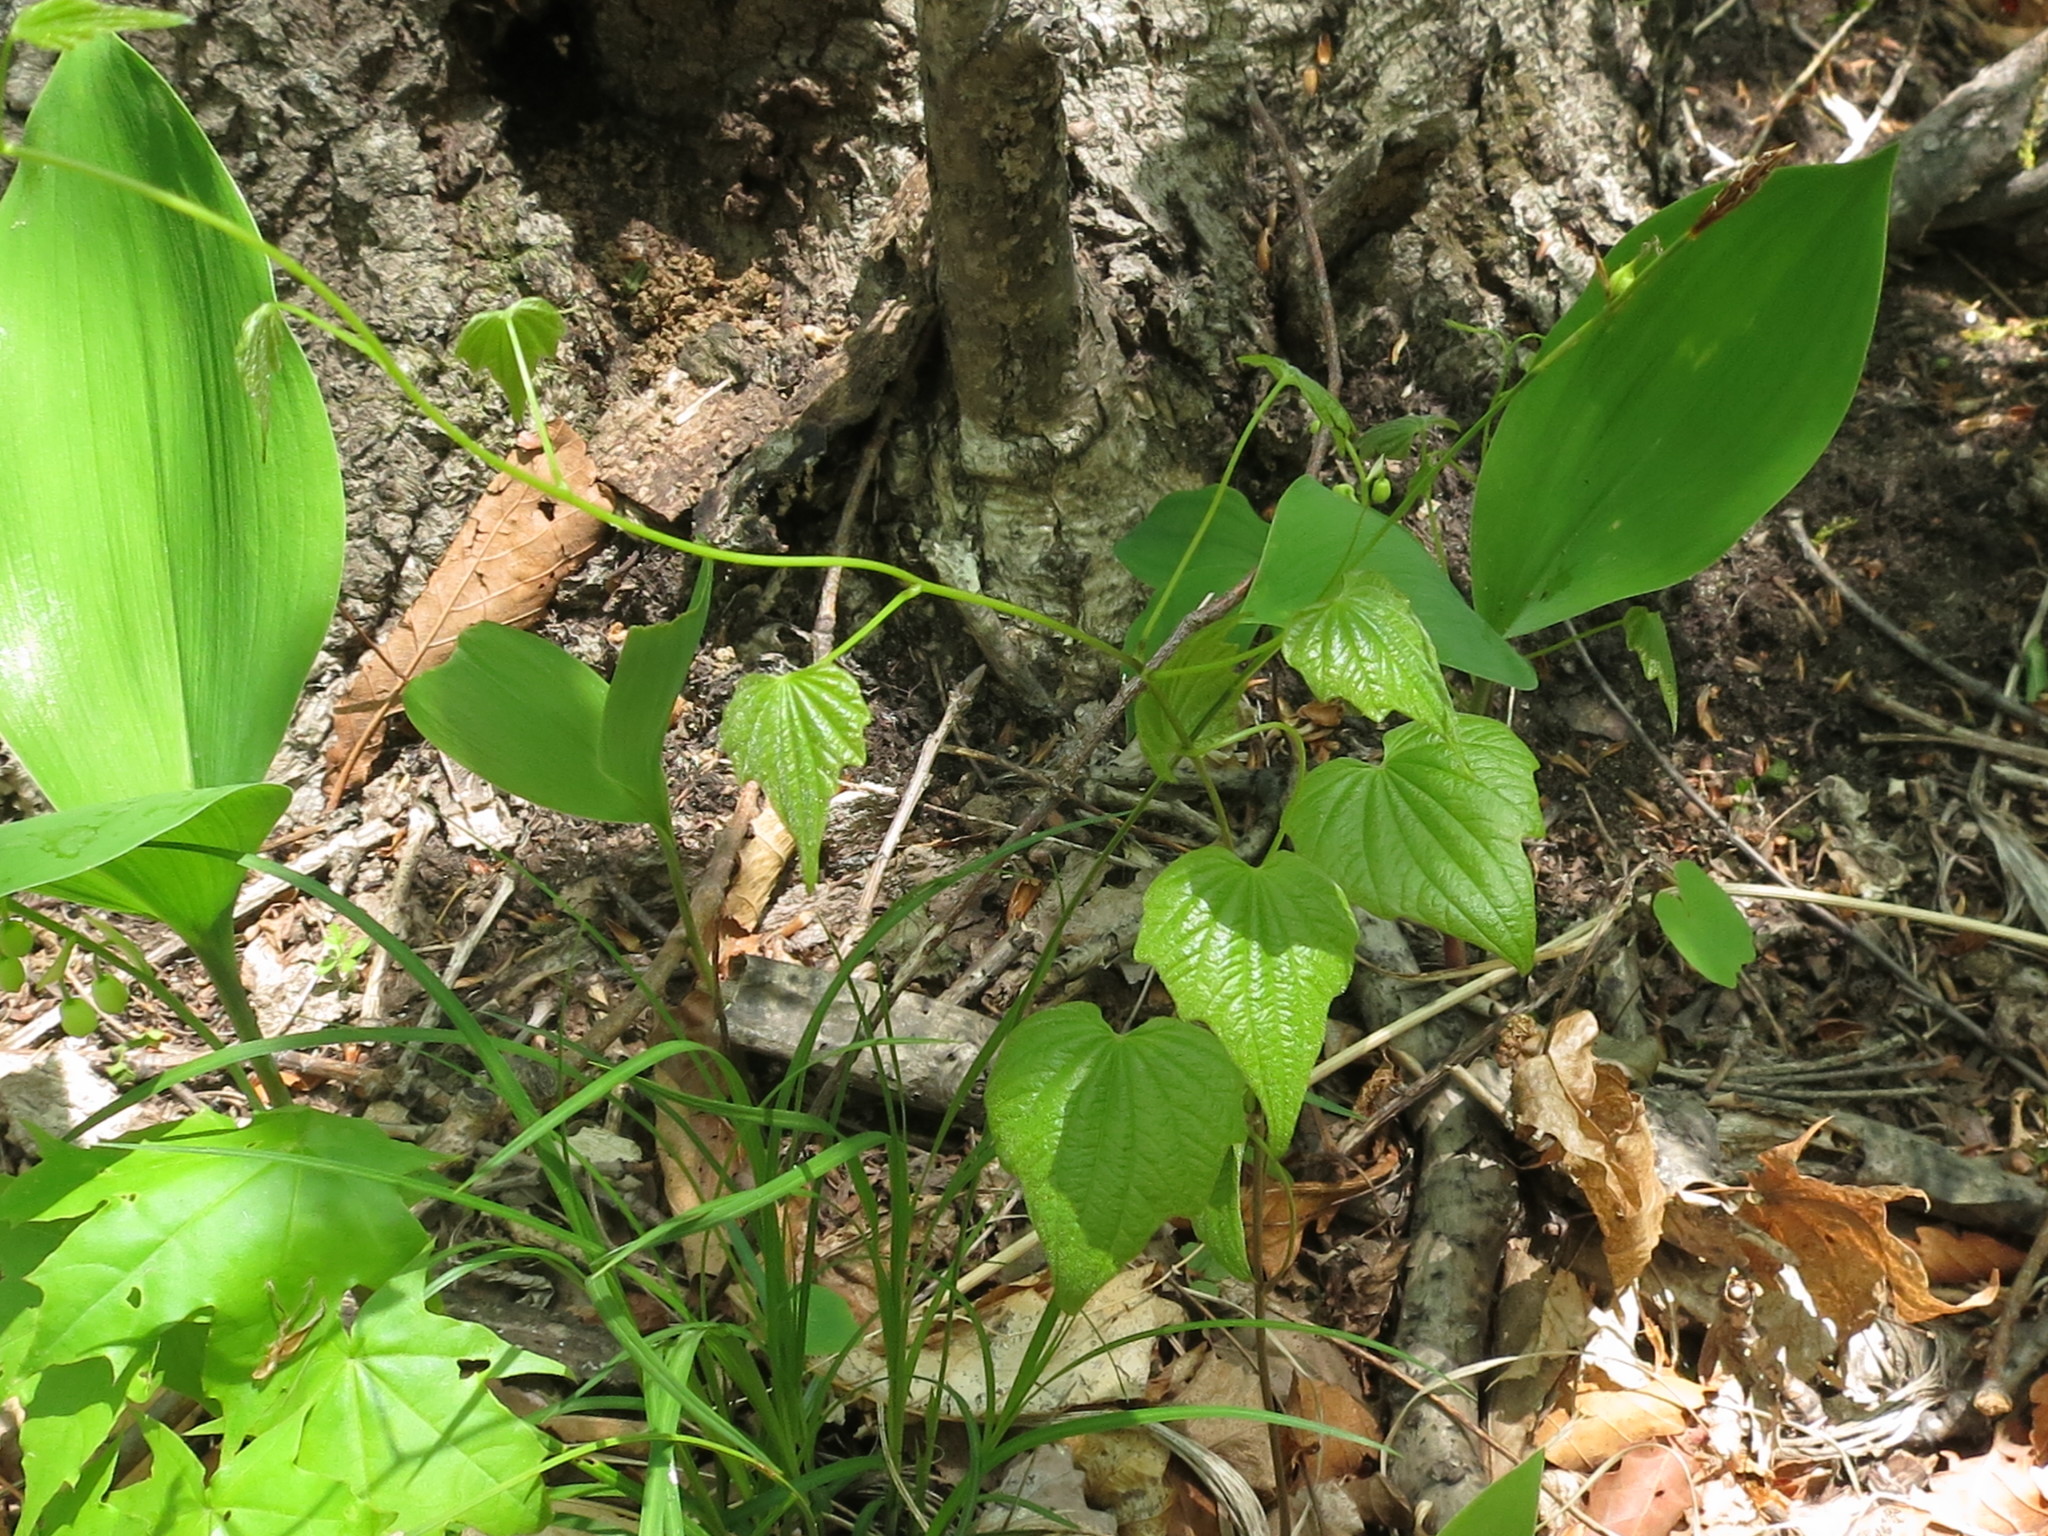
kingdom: Plantae
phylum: Tracheophyta
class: Liliopsida
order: Dioscoreales
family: Dioscoreaceae
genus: Dioscorea
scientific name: Dioscorea nipponica
